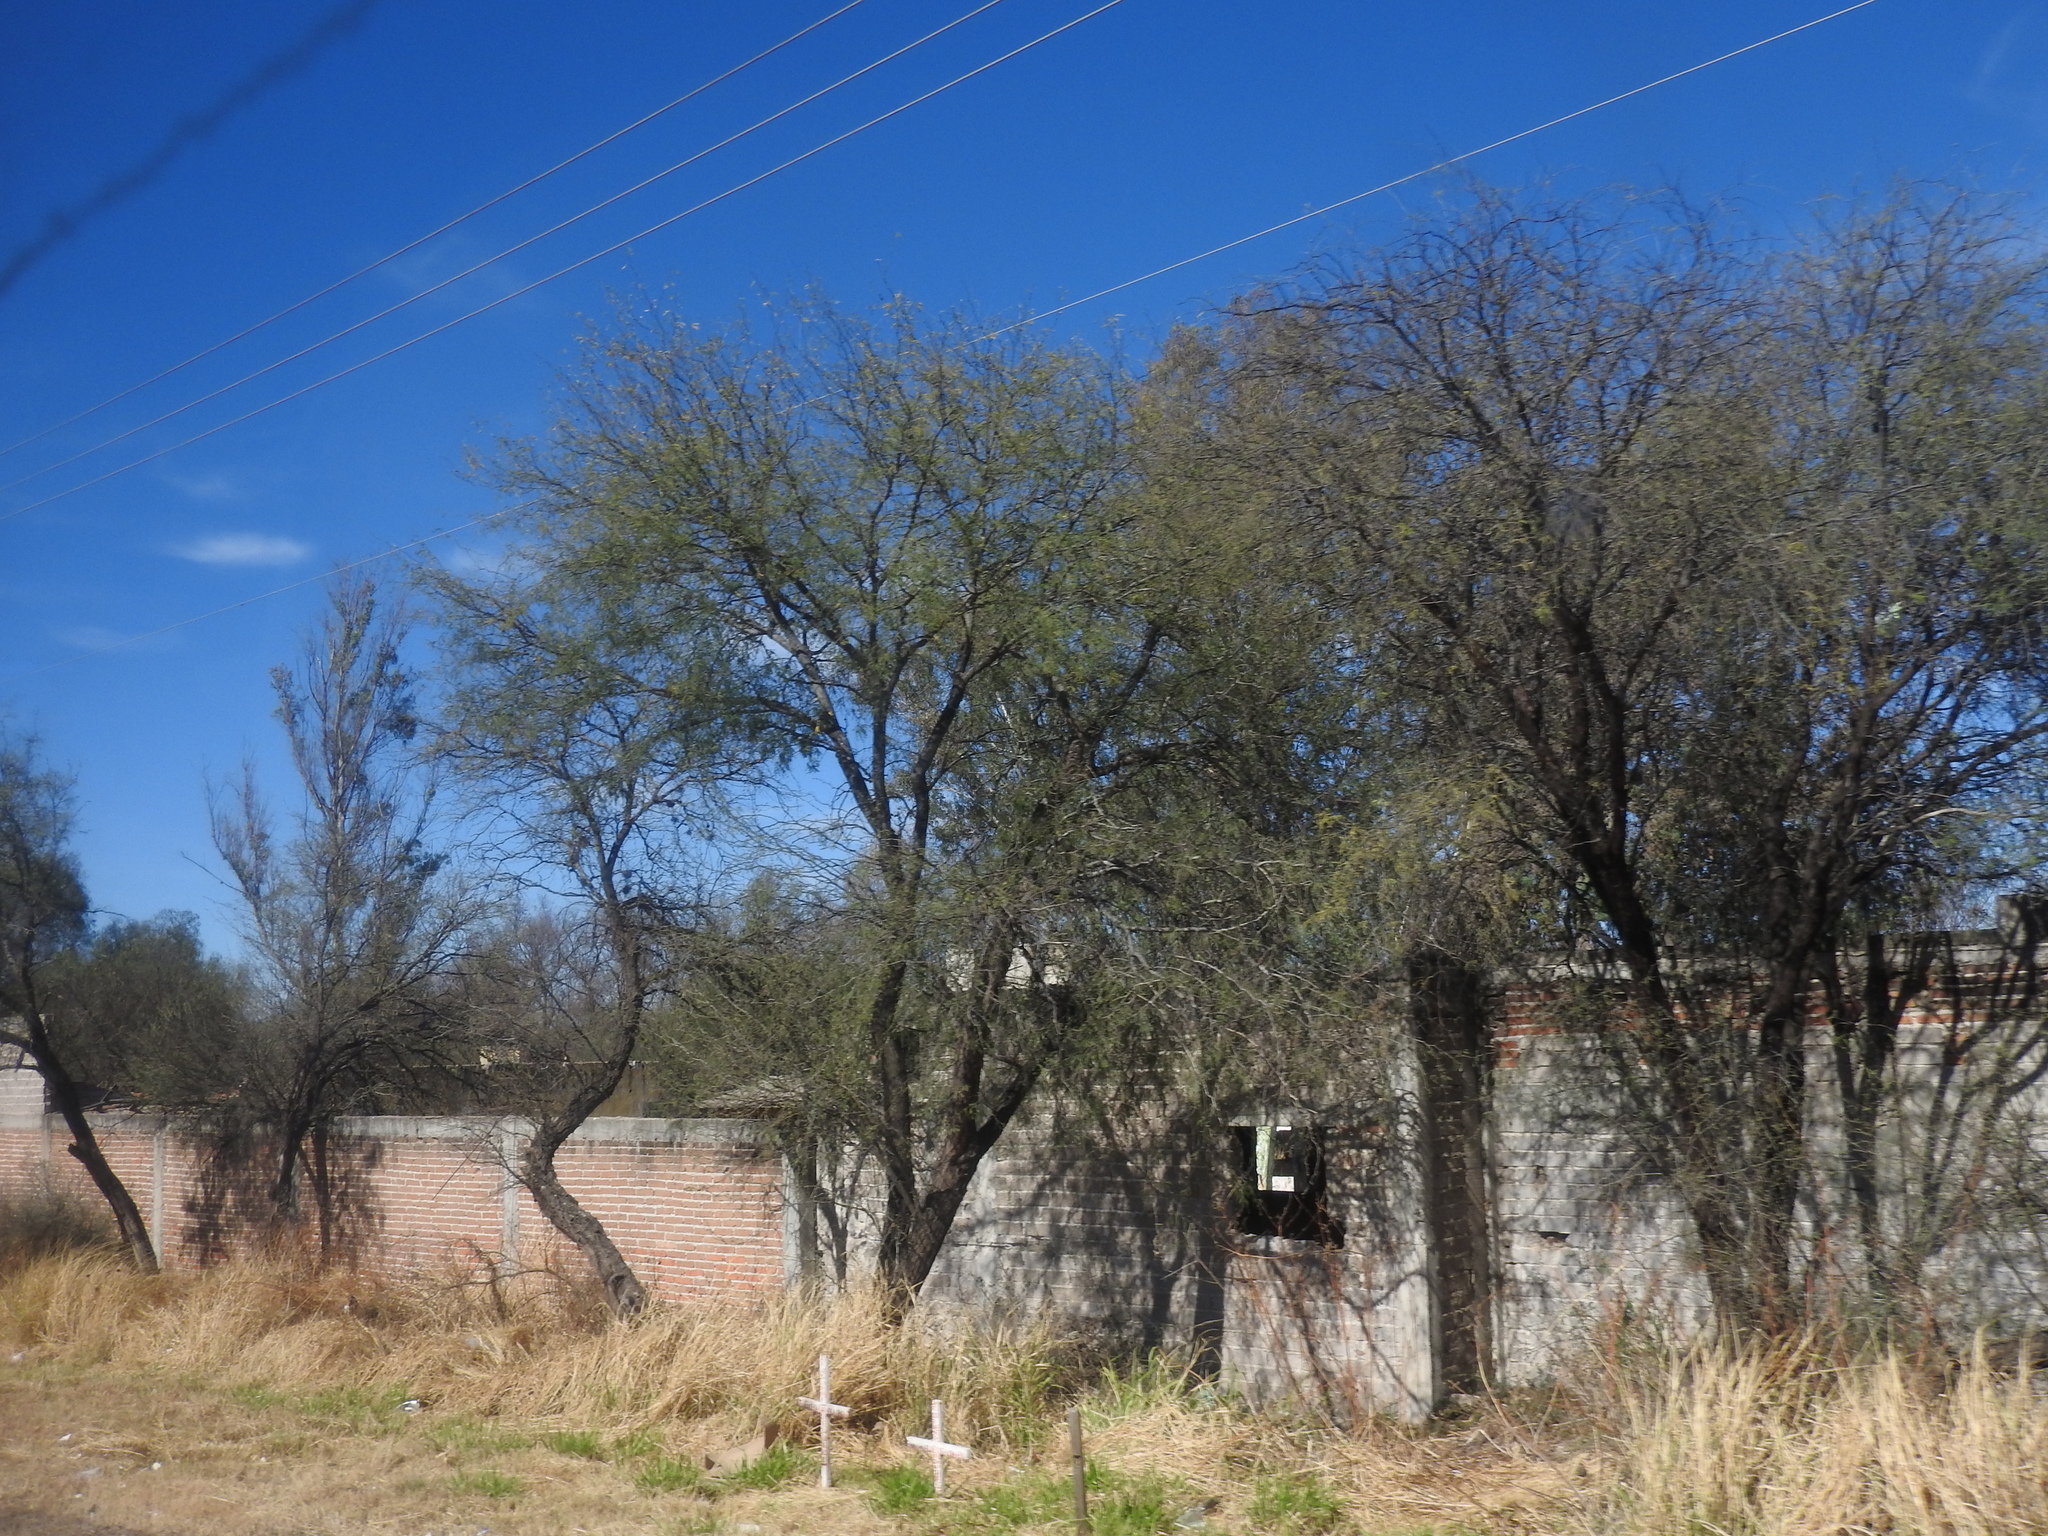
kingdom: Plantae
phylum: Tracheophyta
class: Magnoliopsida
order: Fabales
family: Fabaceae
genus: Prosopis
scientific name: Prosopis laevigata
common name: Smooth mesquite
